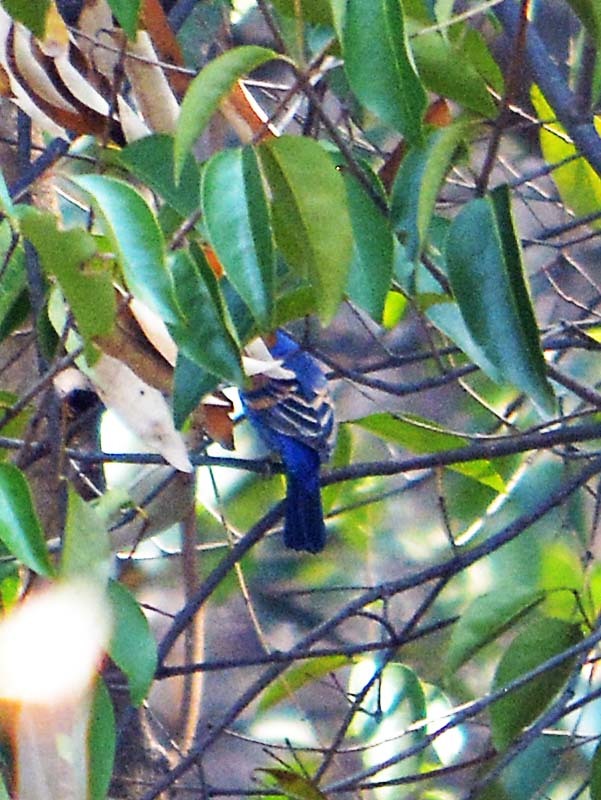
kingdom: Animalia
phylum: Chordata
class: Aves
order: Passeriformes
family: Cardinalidae
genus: Passerina
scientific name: Passerina caerulea
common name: Blue grosbeak
